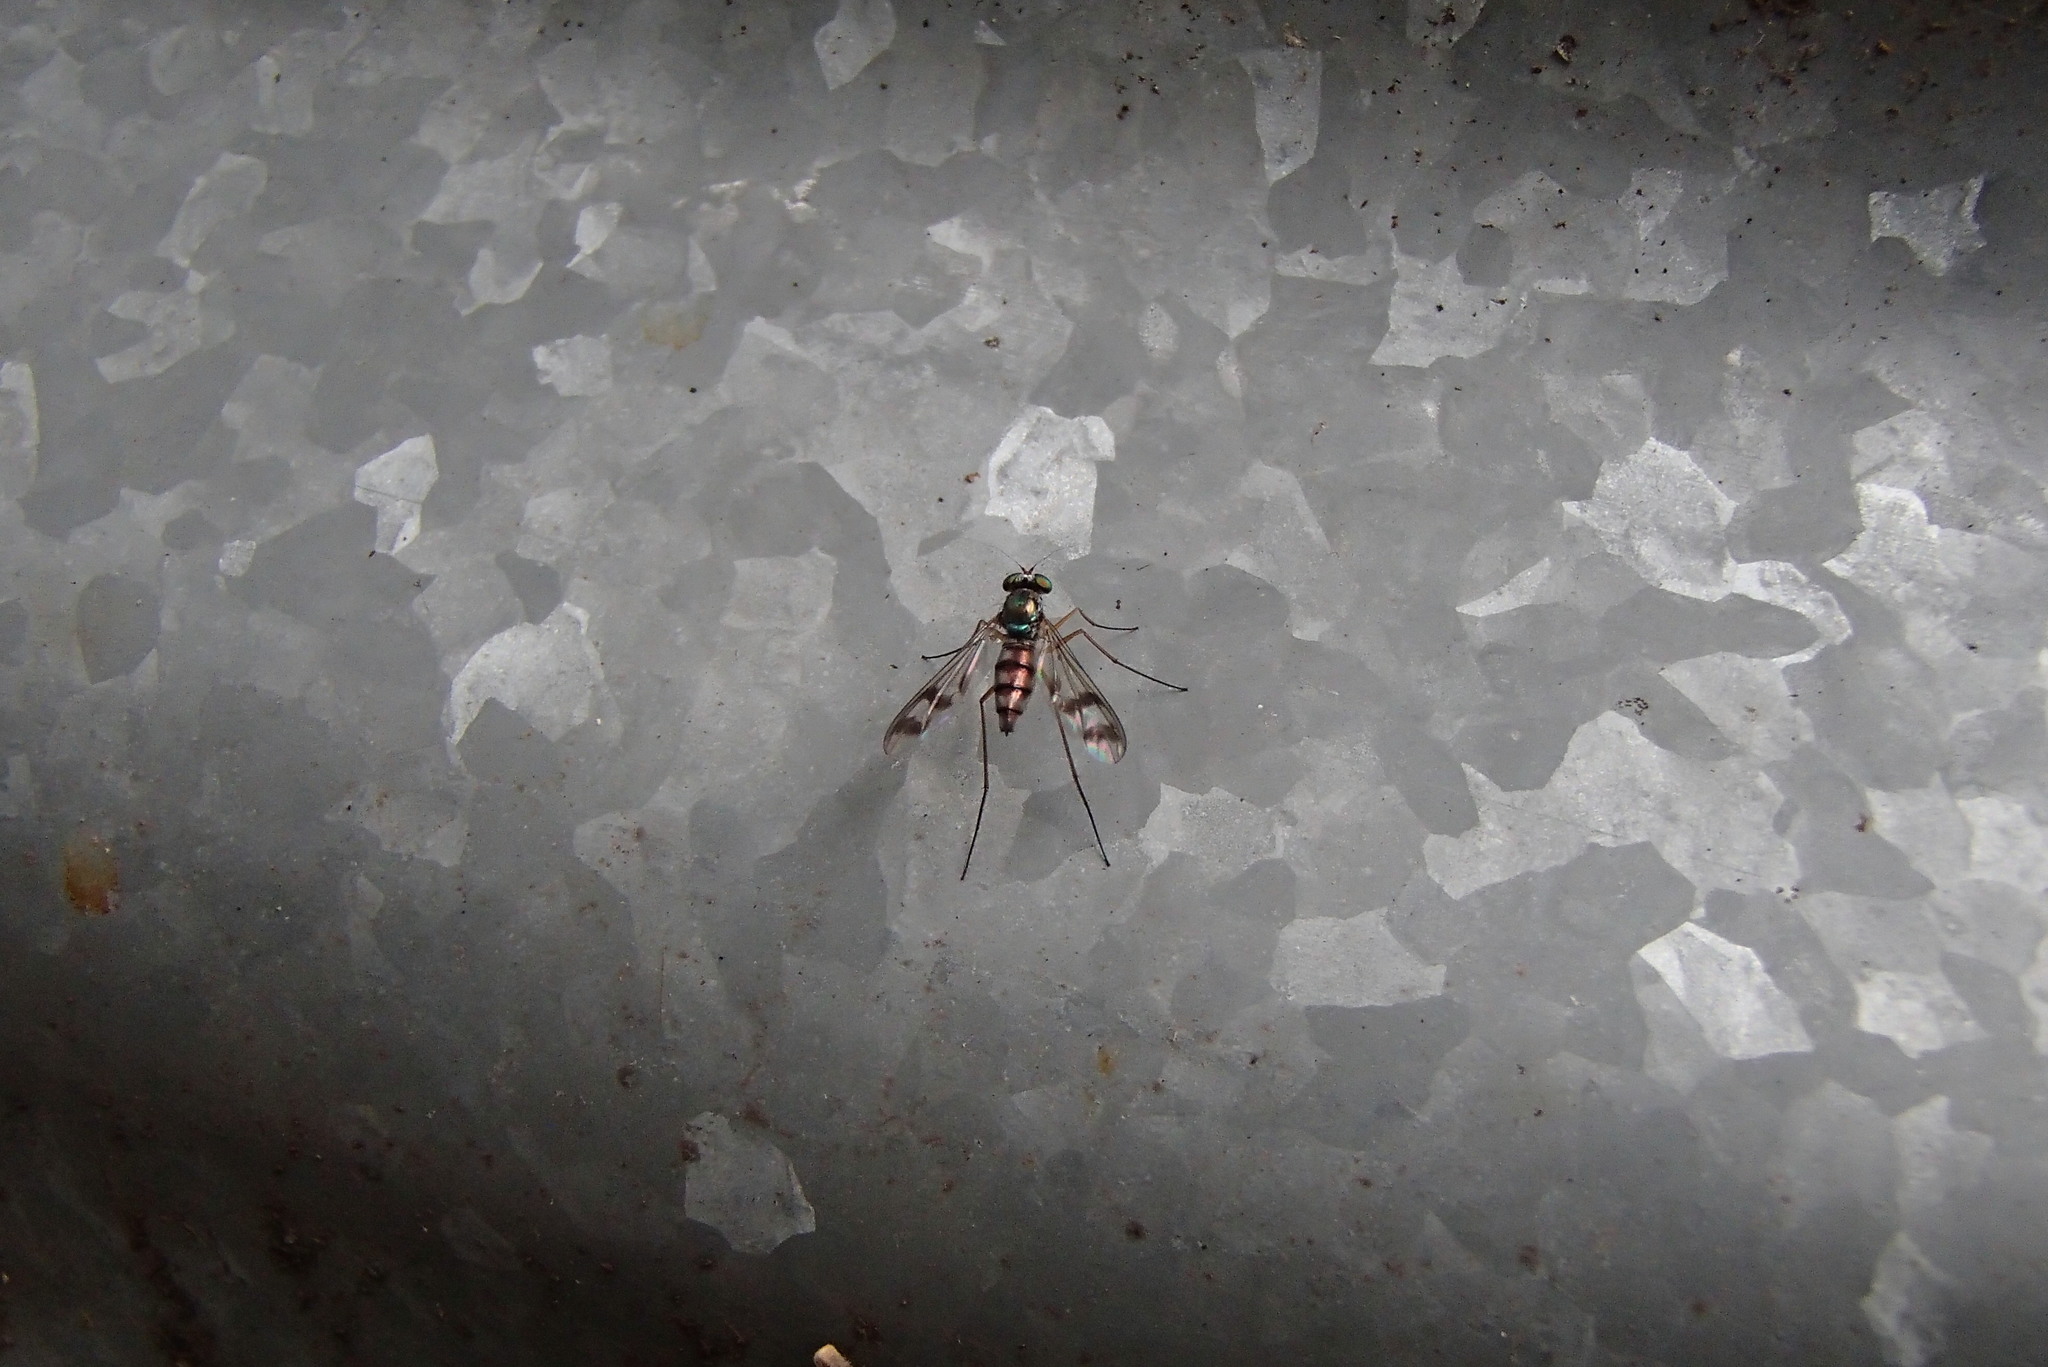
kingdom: Animalia
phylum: Arthropoda
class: Insecta
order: Diptera
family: Dolichopodidae
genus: Heteropsilopus
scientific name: Heteropsilopus squamifer
